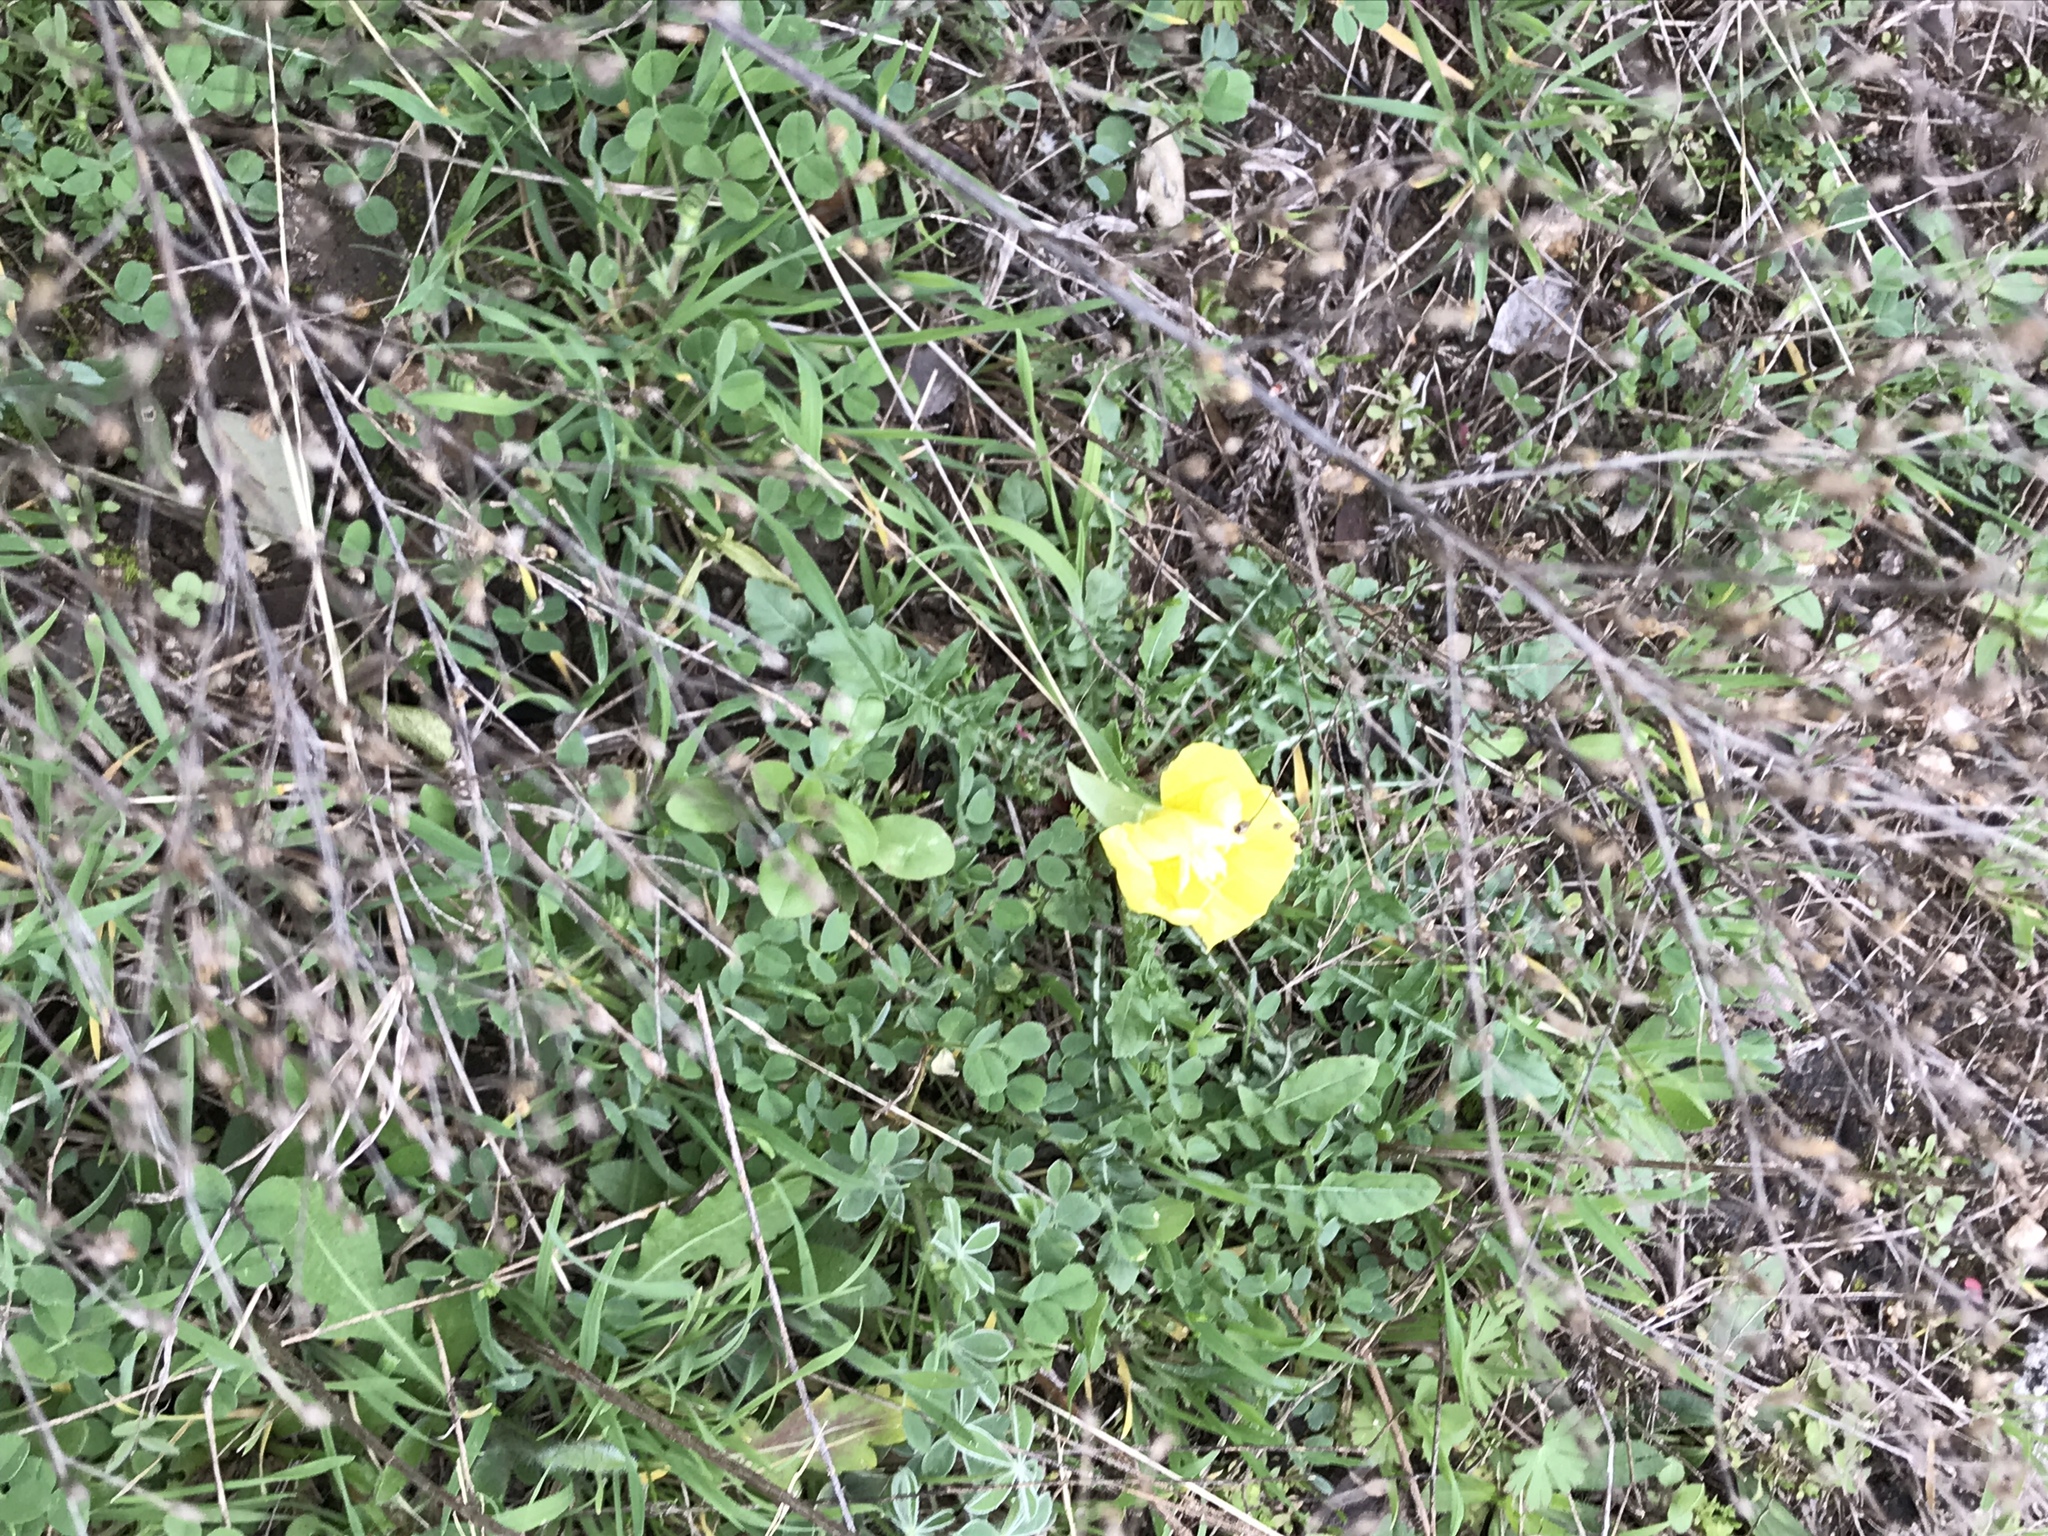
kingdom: Plantae
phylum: Tracheophyta
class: Magnoliopsida
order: Myrtales
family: Onagraceae
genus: Oenothera
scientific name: Oenothera triloba
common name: Sessile evening-primrose
